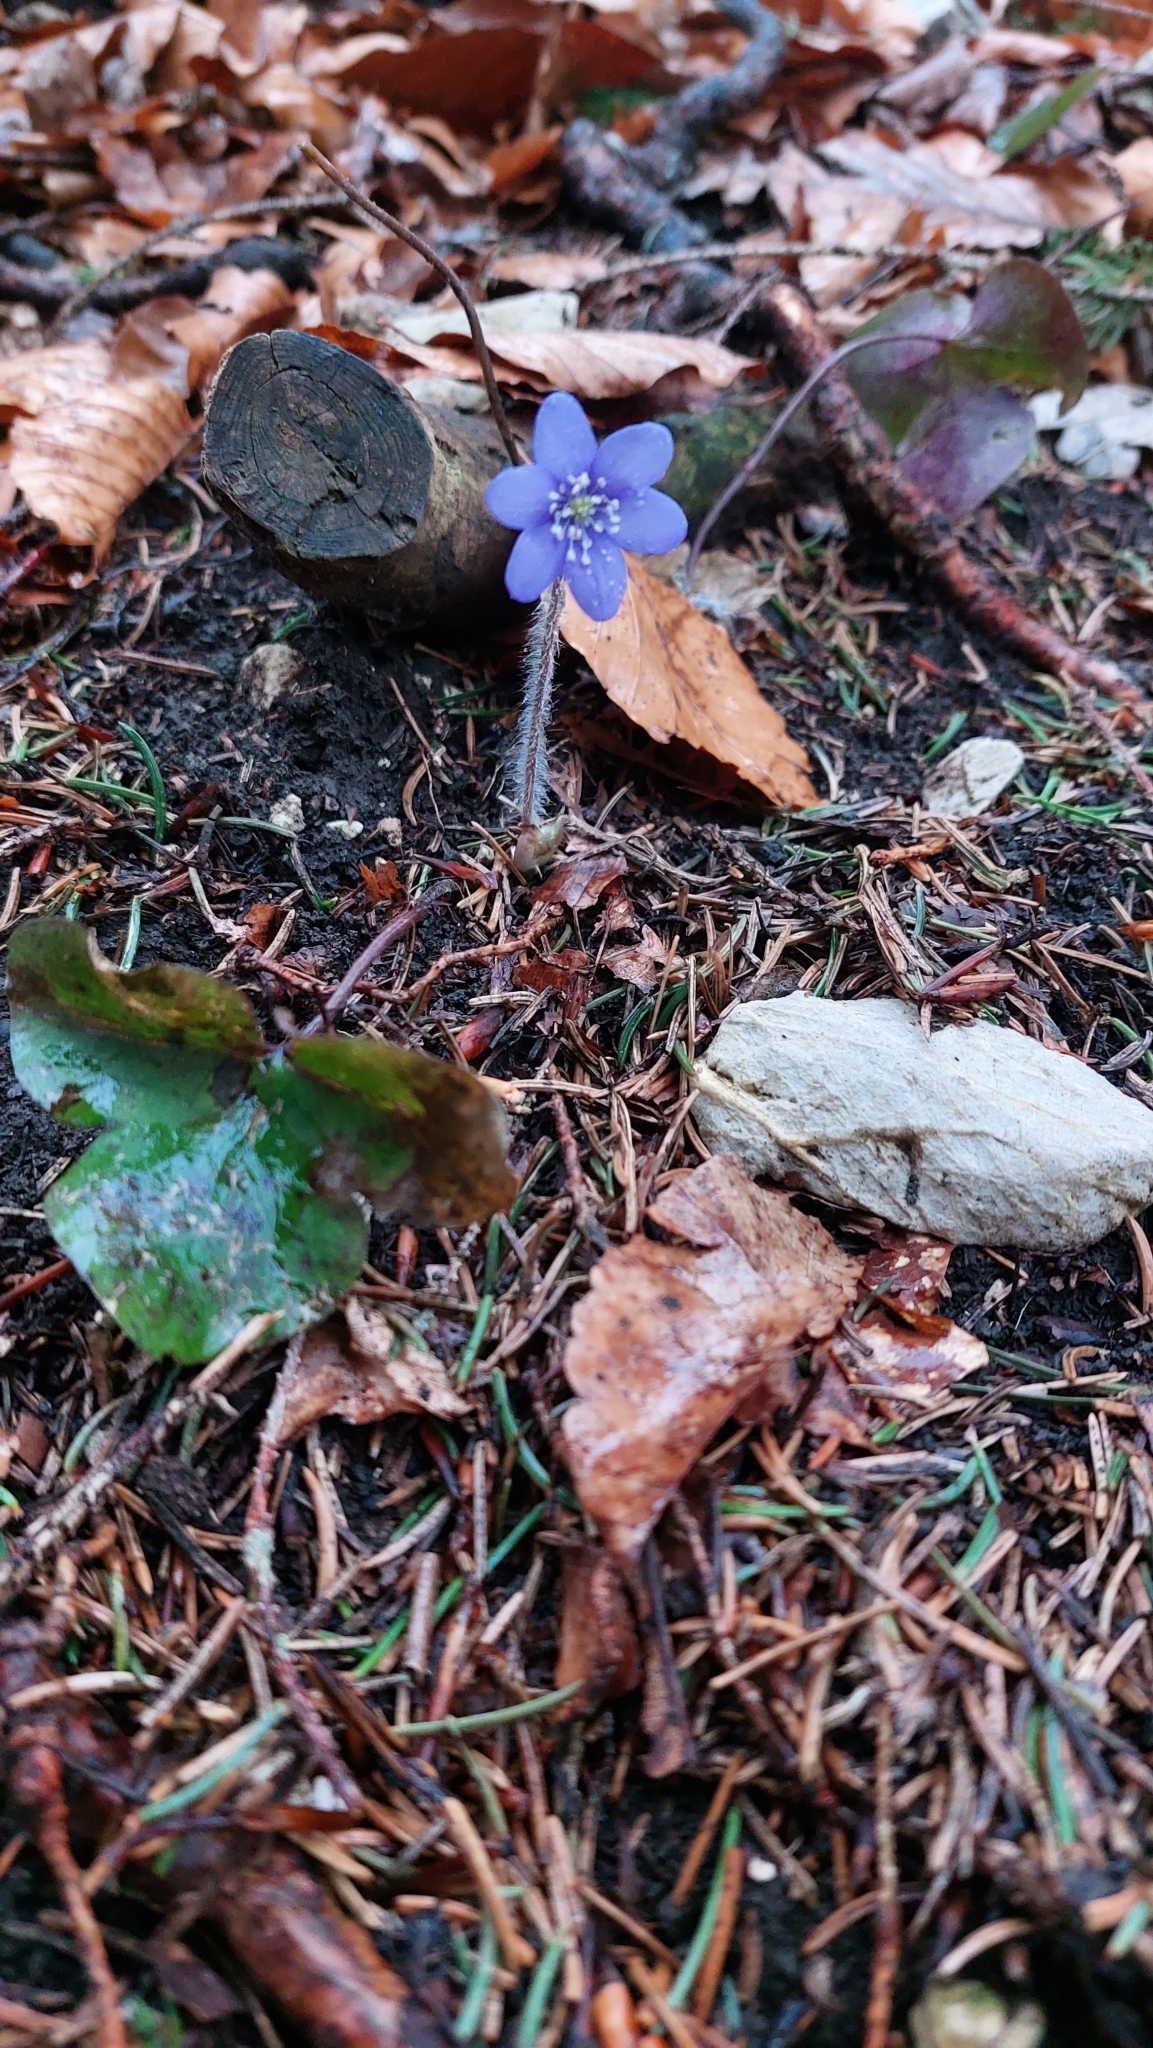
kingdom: Plantae
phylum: Tracheophyta
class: Magnoliopsida
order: Ranunculales
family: Ranunculaceae
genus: Hepatica
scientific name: Hepatica nobilis
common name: Liverleaf
